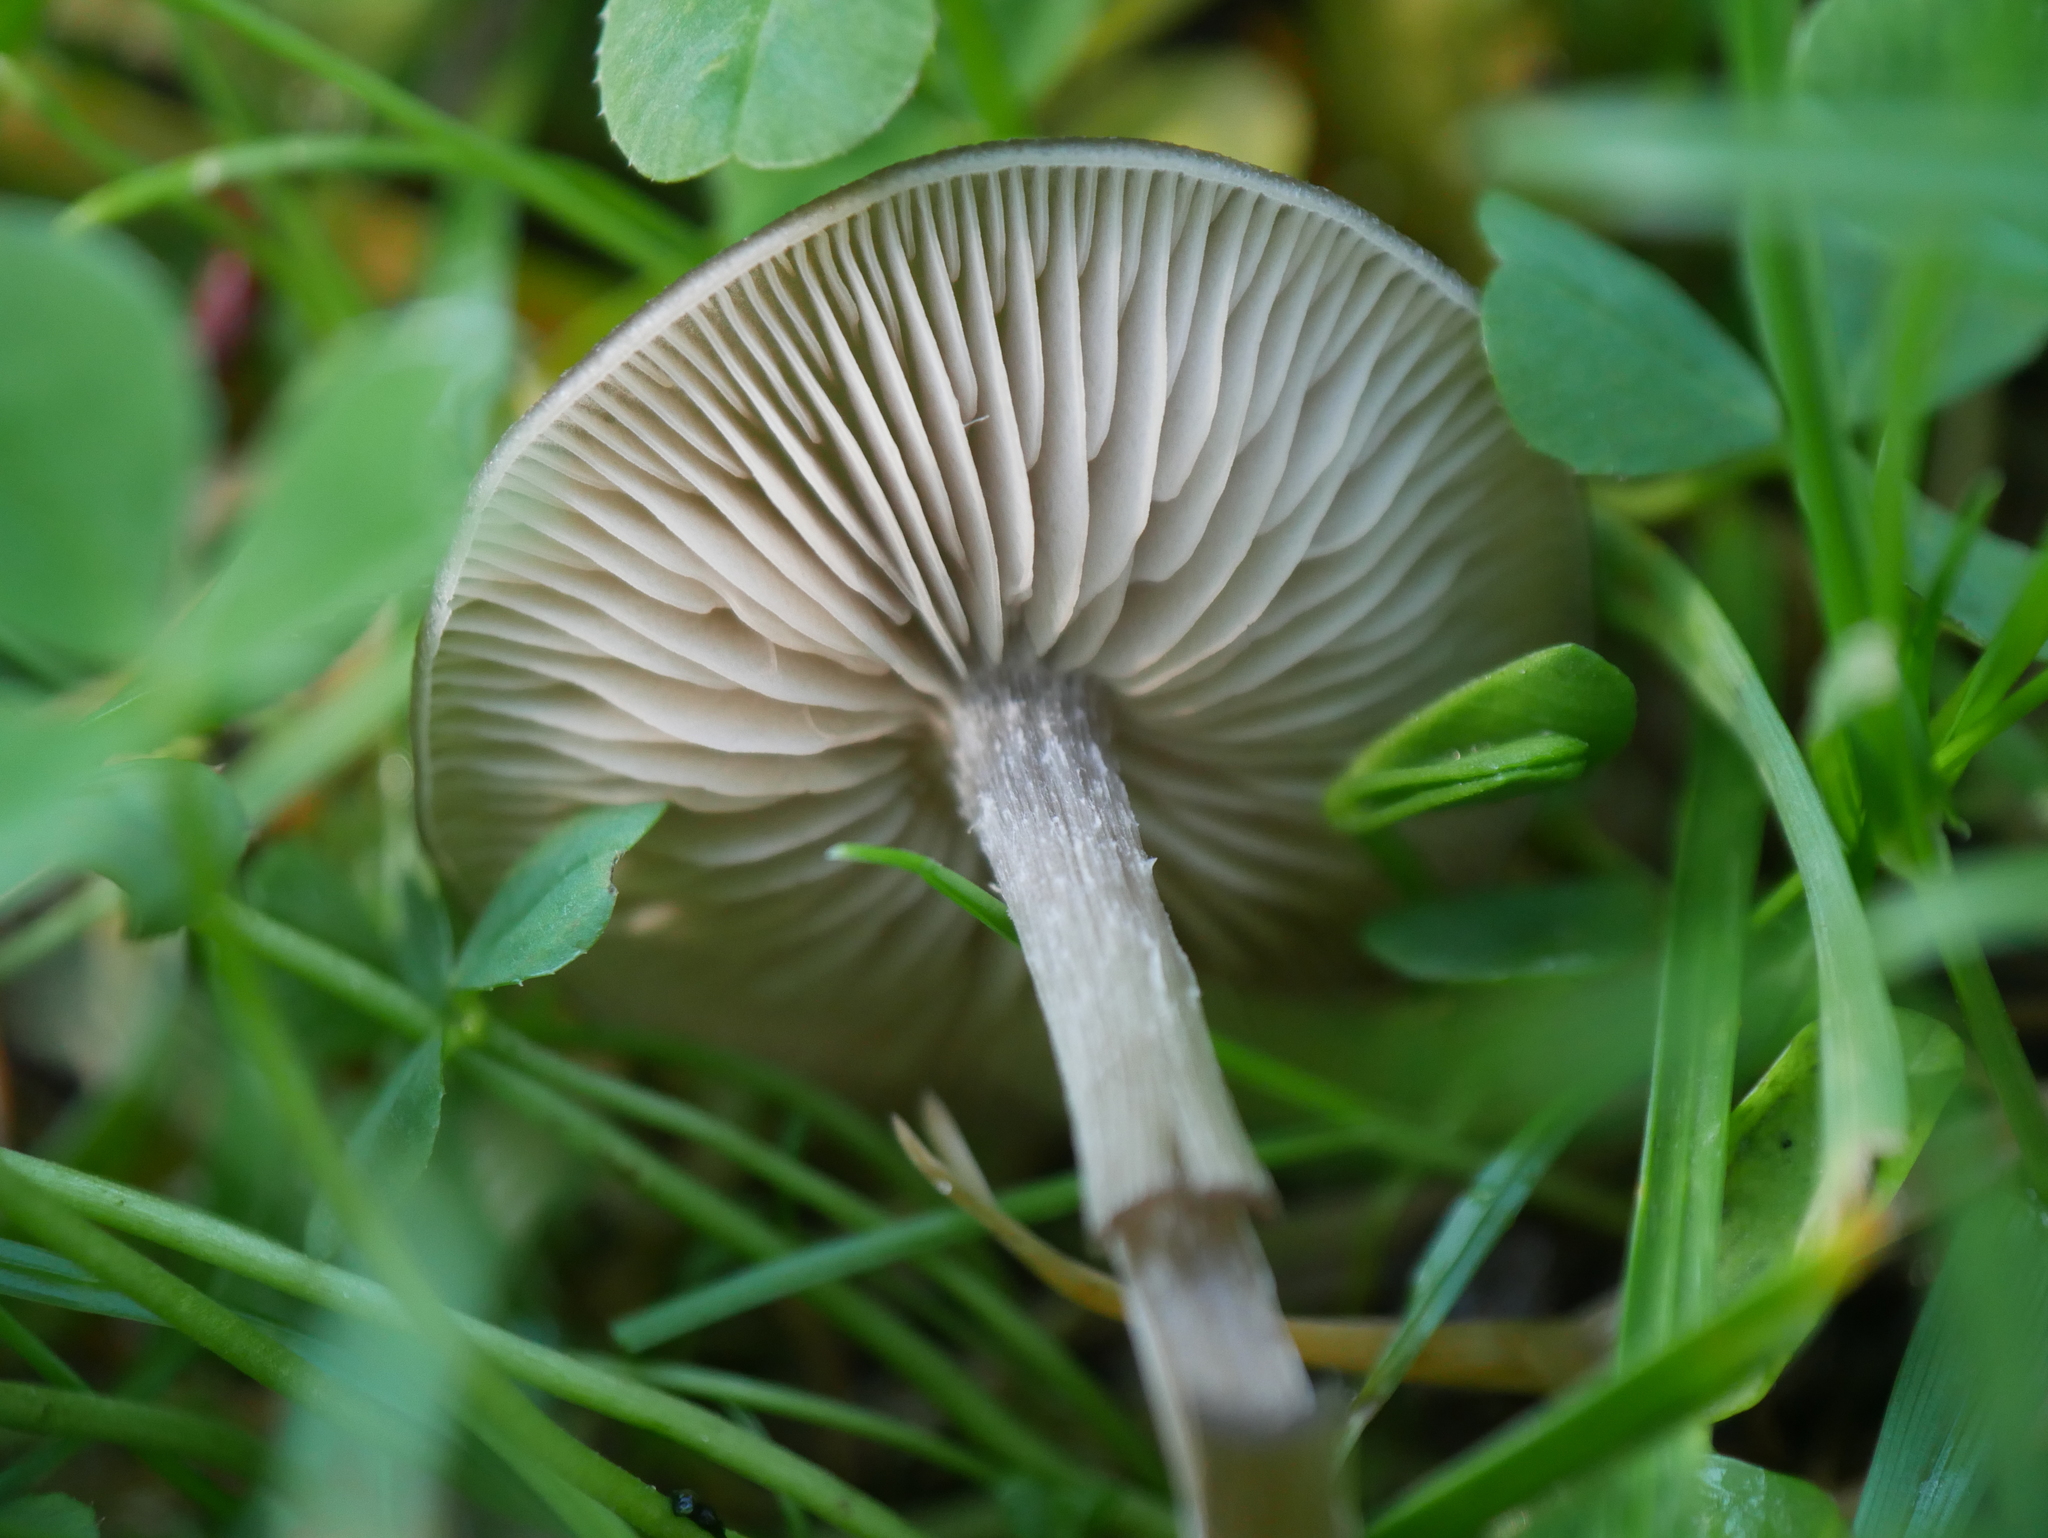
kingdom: Fungi
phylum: Basidiomycota
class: Agaricomycetes
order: Agaricales
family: Entolomataceae
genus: Entoloma
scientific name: Entoloma sericeum
